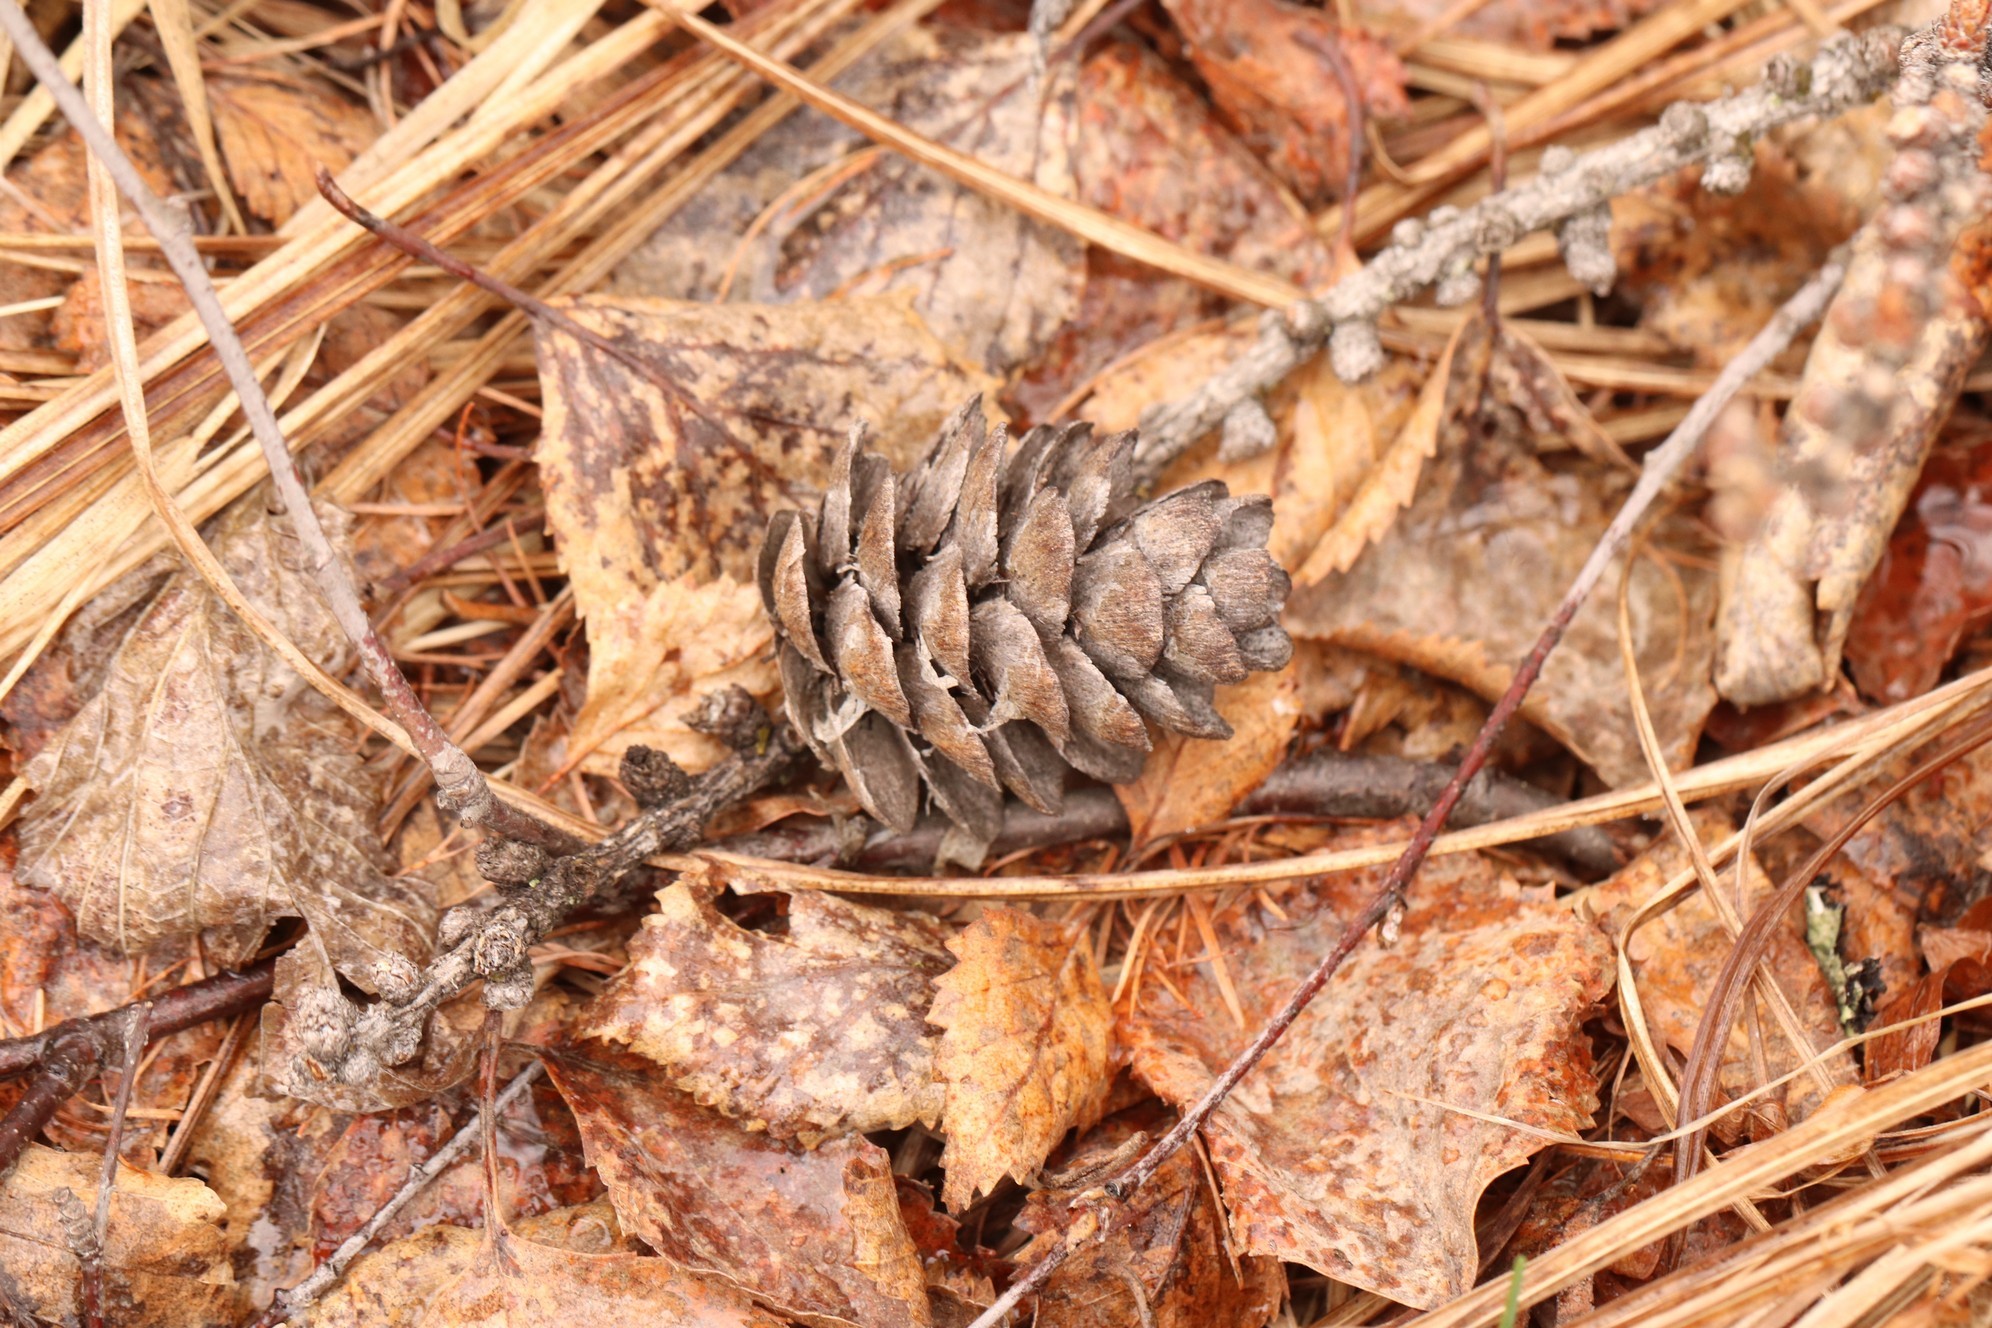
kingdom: Plantae
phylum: Tracheophyta
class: Pinopsida
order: Pinales
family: Pinaceae
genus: Larix
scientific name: Larix sibirica
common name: Siberian larch
